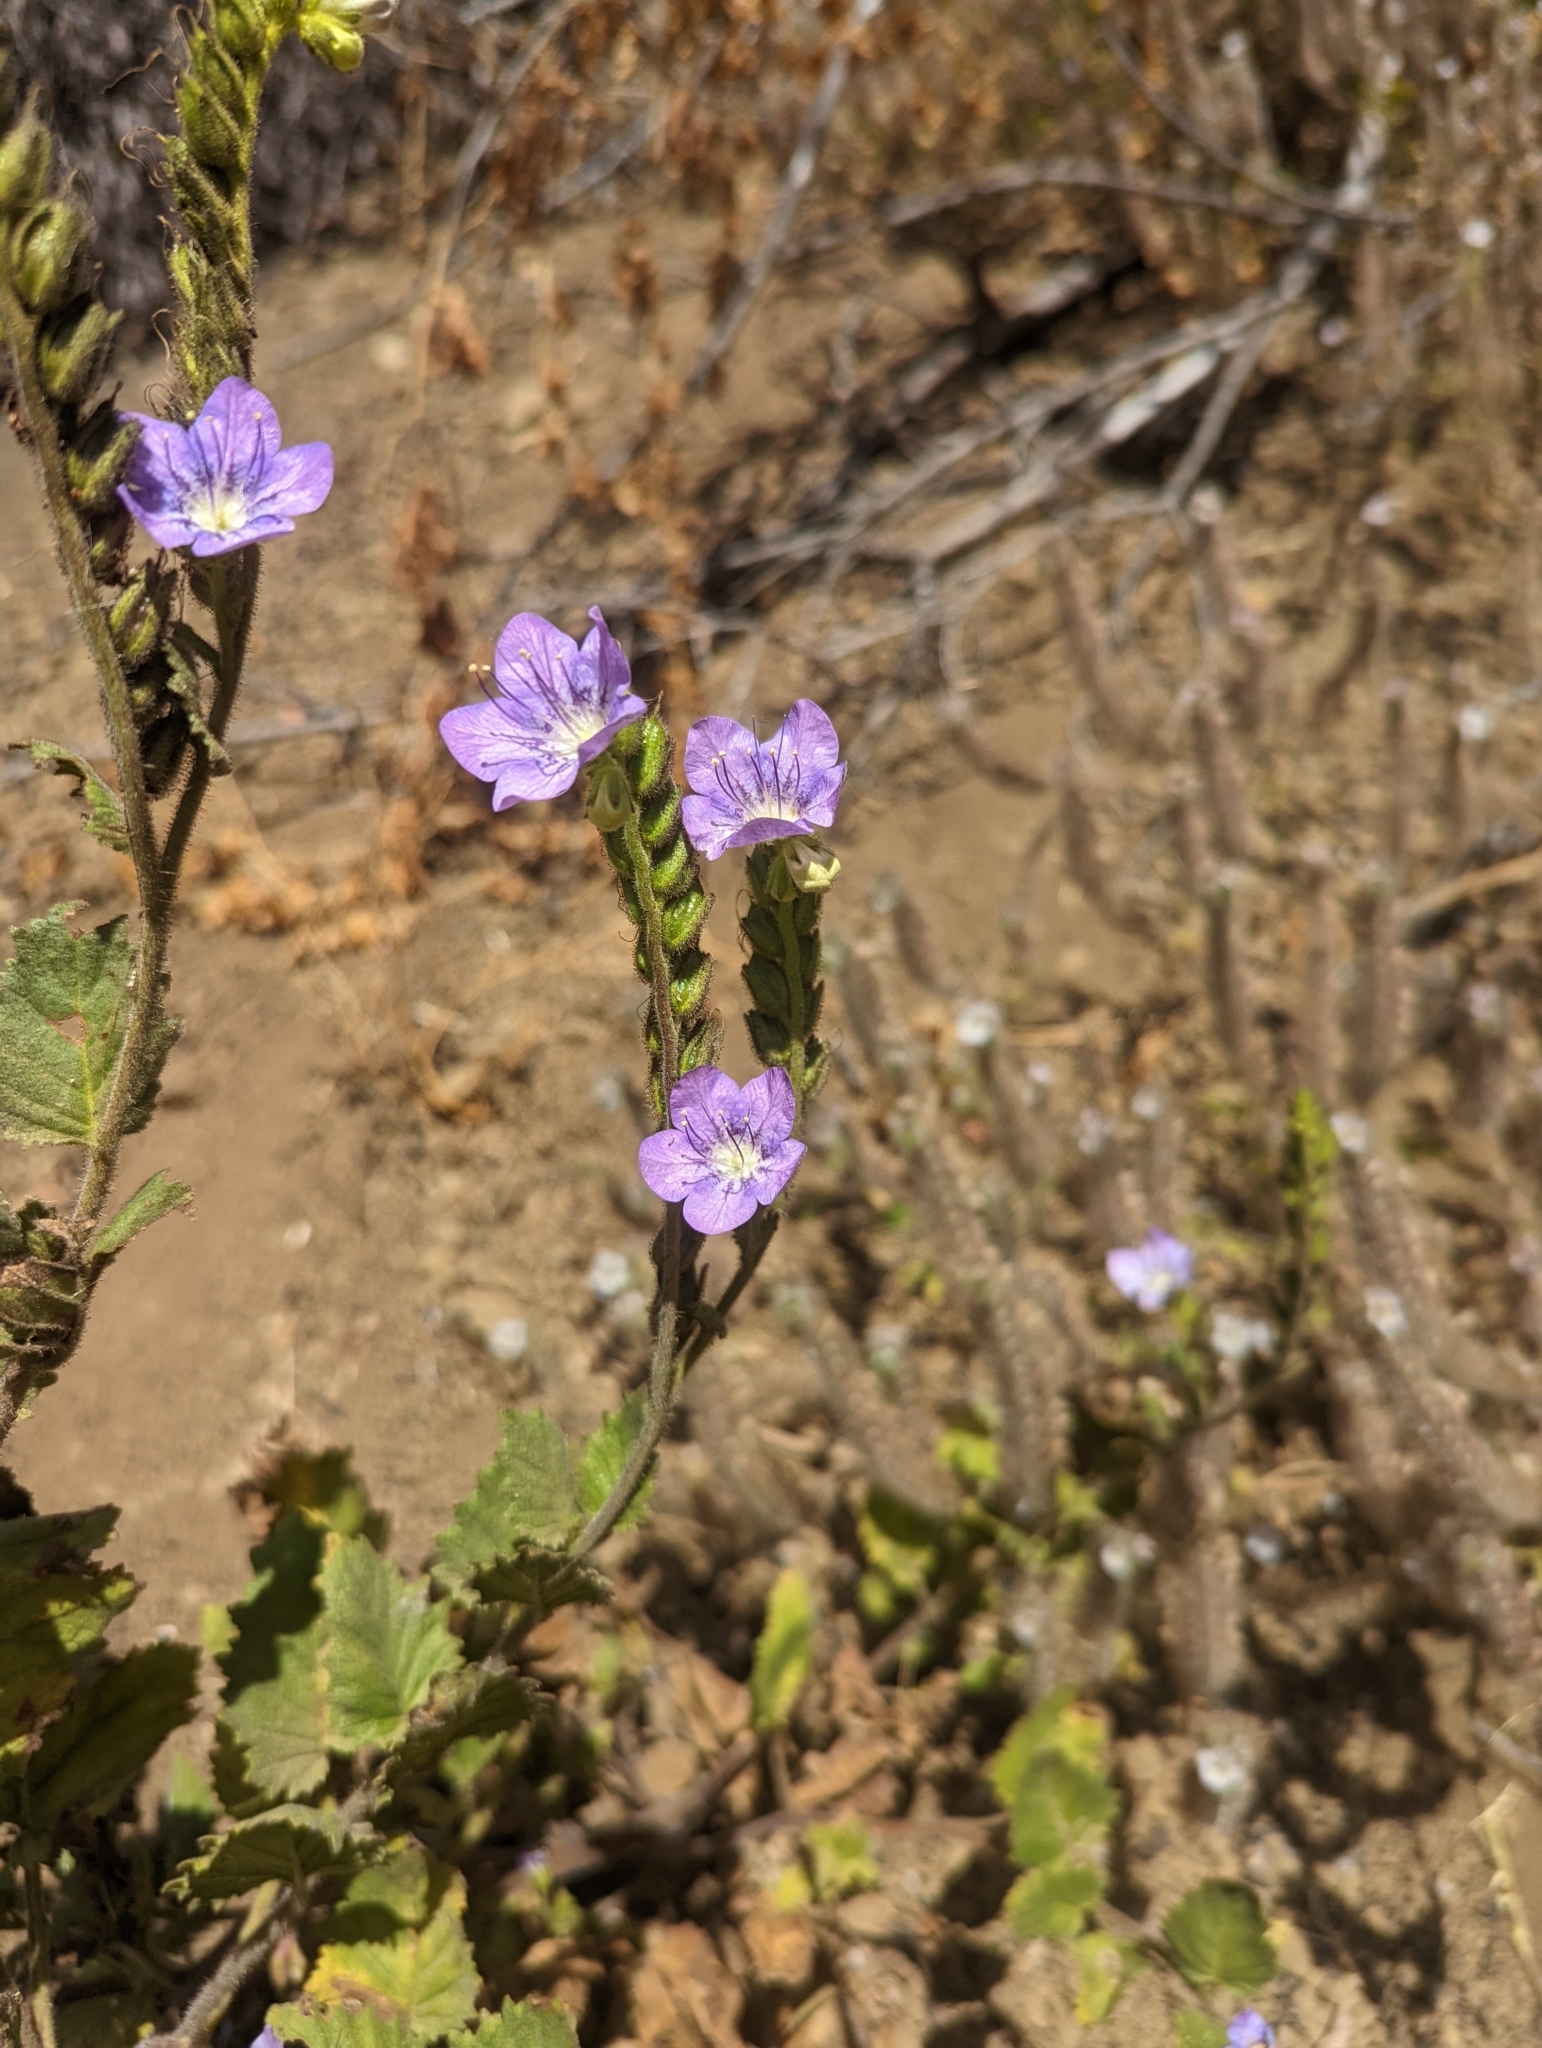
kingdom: Plantae
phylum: Tracheophyta
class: Magnoliopsida
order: Boraginales
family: Hydrophyllaceae
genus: Phacelia
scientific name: Phacelia grandiflora
